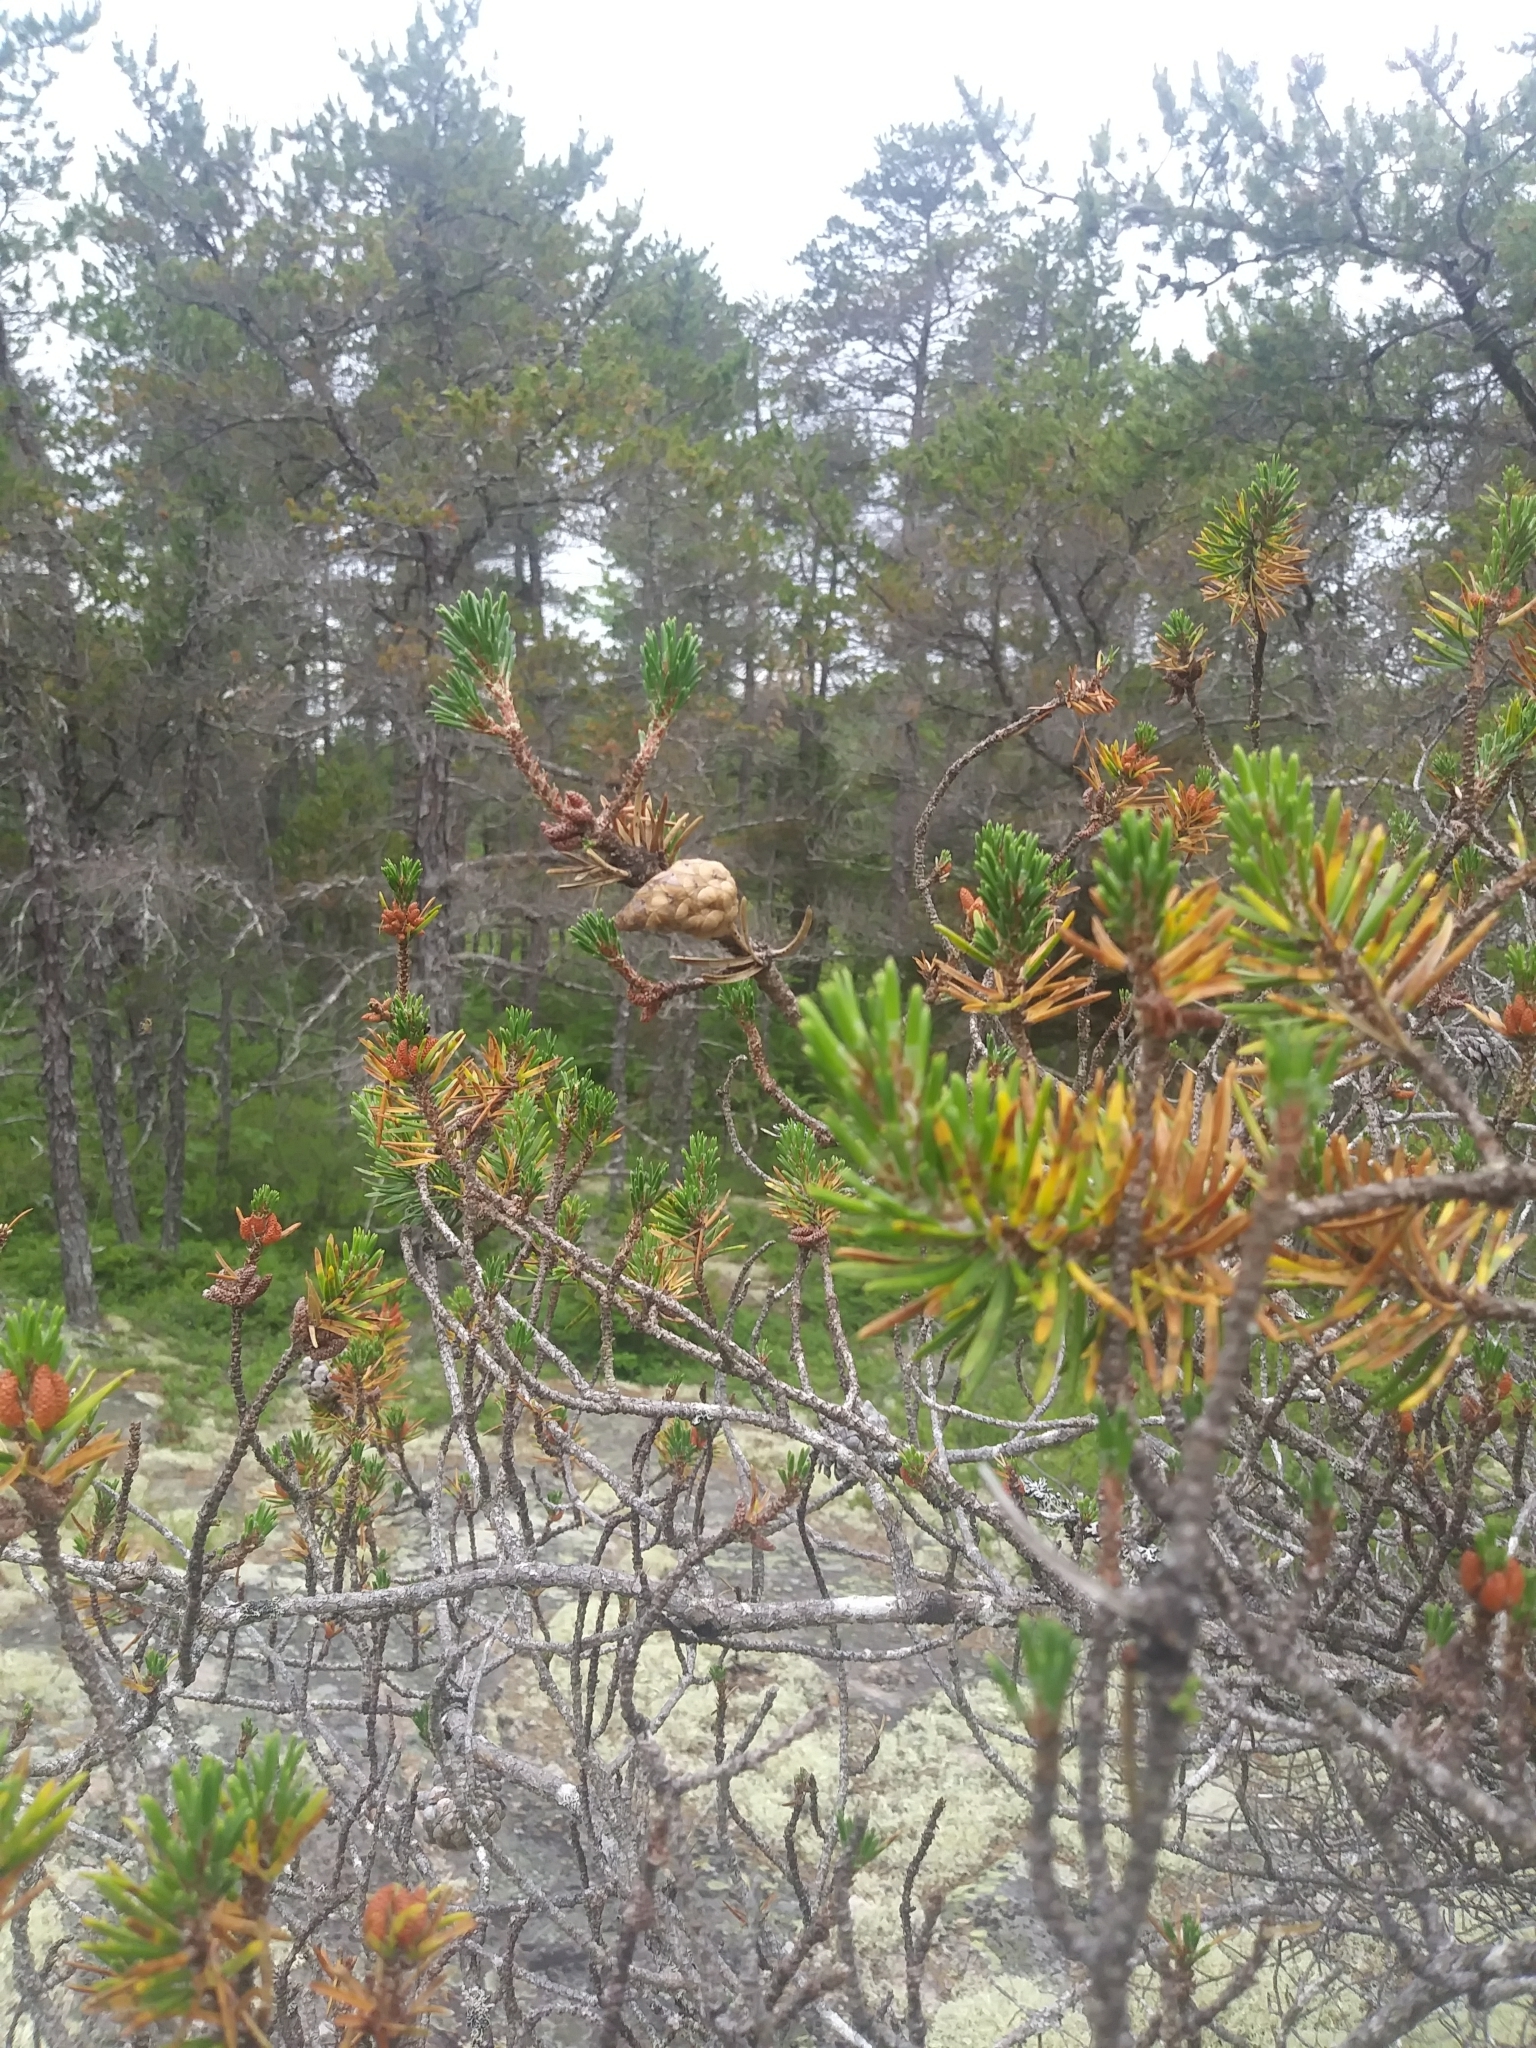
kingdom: Plantae
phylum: Tracheophyta
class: Pinopsida
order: Pinales
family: Pinaceae
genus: Pinus
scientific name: Pinus banksiana
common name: Jack pine
